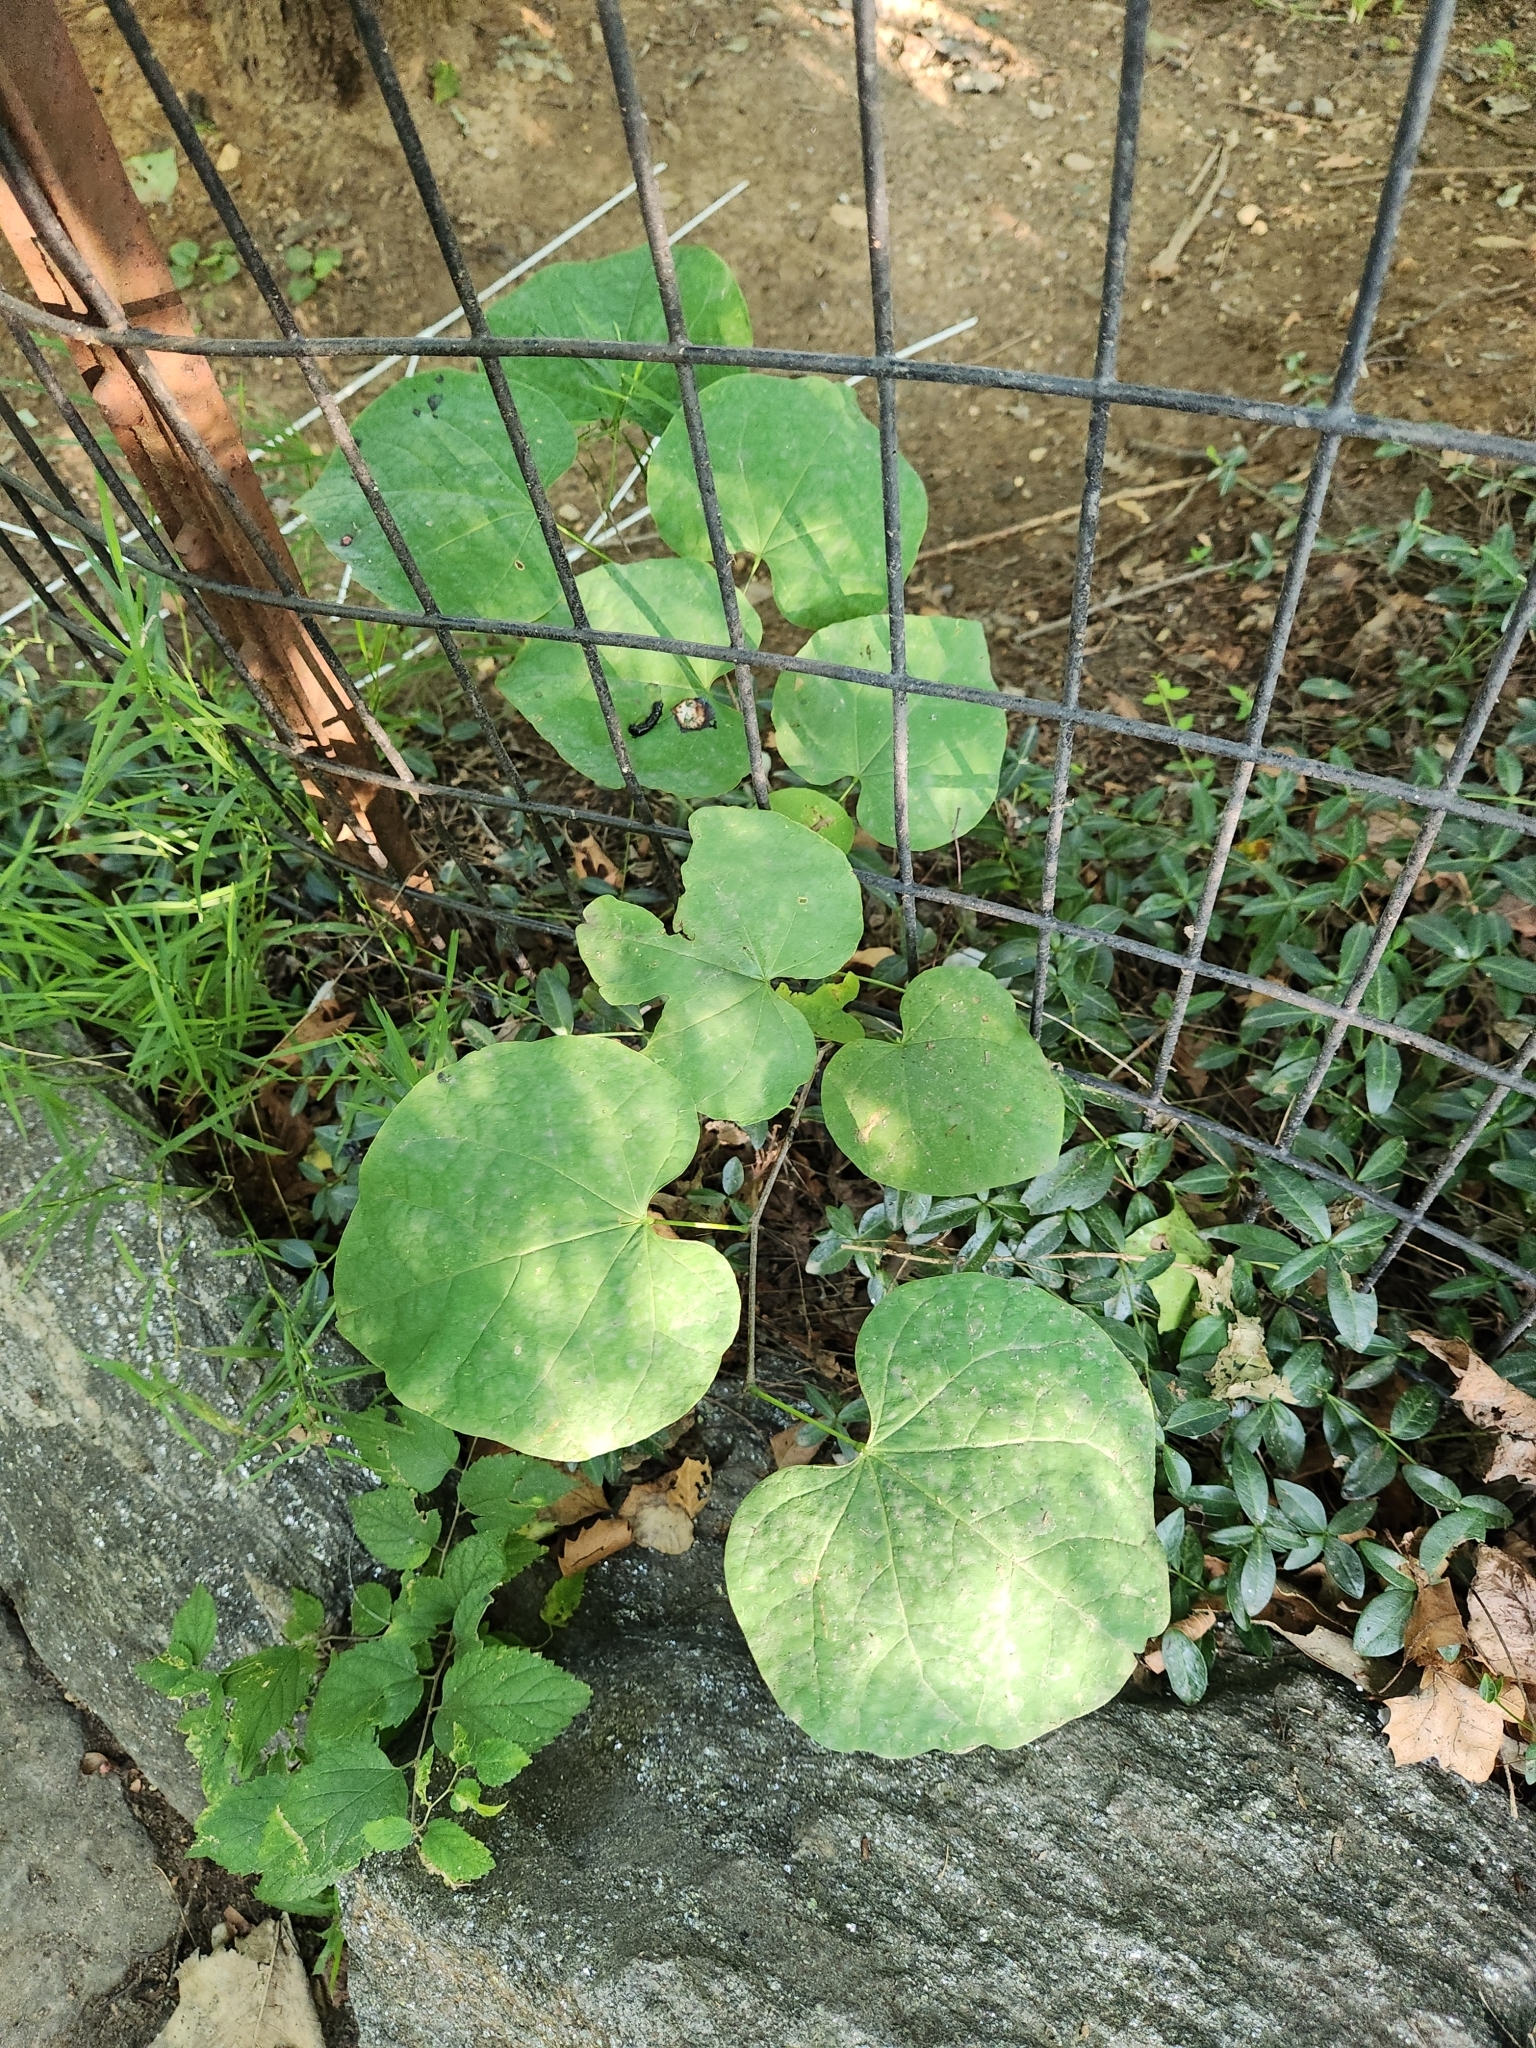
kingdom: Plantae
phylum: Tracheophyta
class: Magnoliopsida
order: Fabales
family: Fabaceae
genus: Cercis
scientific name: Cercis canadensis
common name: Eastern redbud
